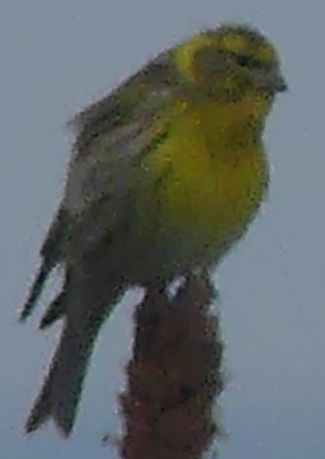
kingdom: Animalia
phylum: Chordata
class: Aves
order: Passeriformes
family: Fringillidae
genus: Serinus
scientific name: Serinus serinus
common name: European serin
